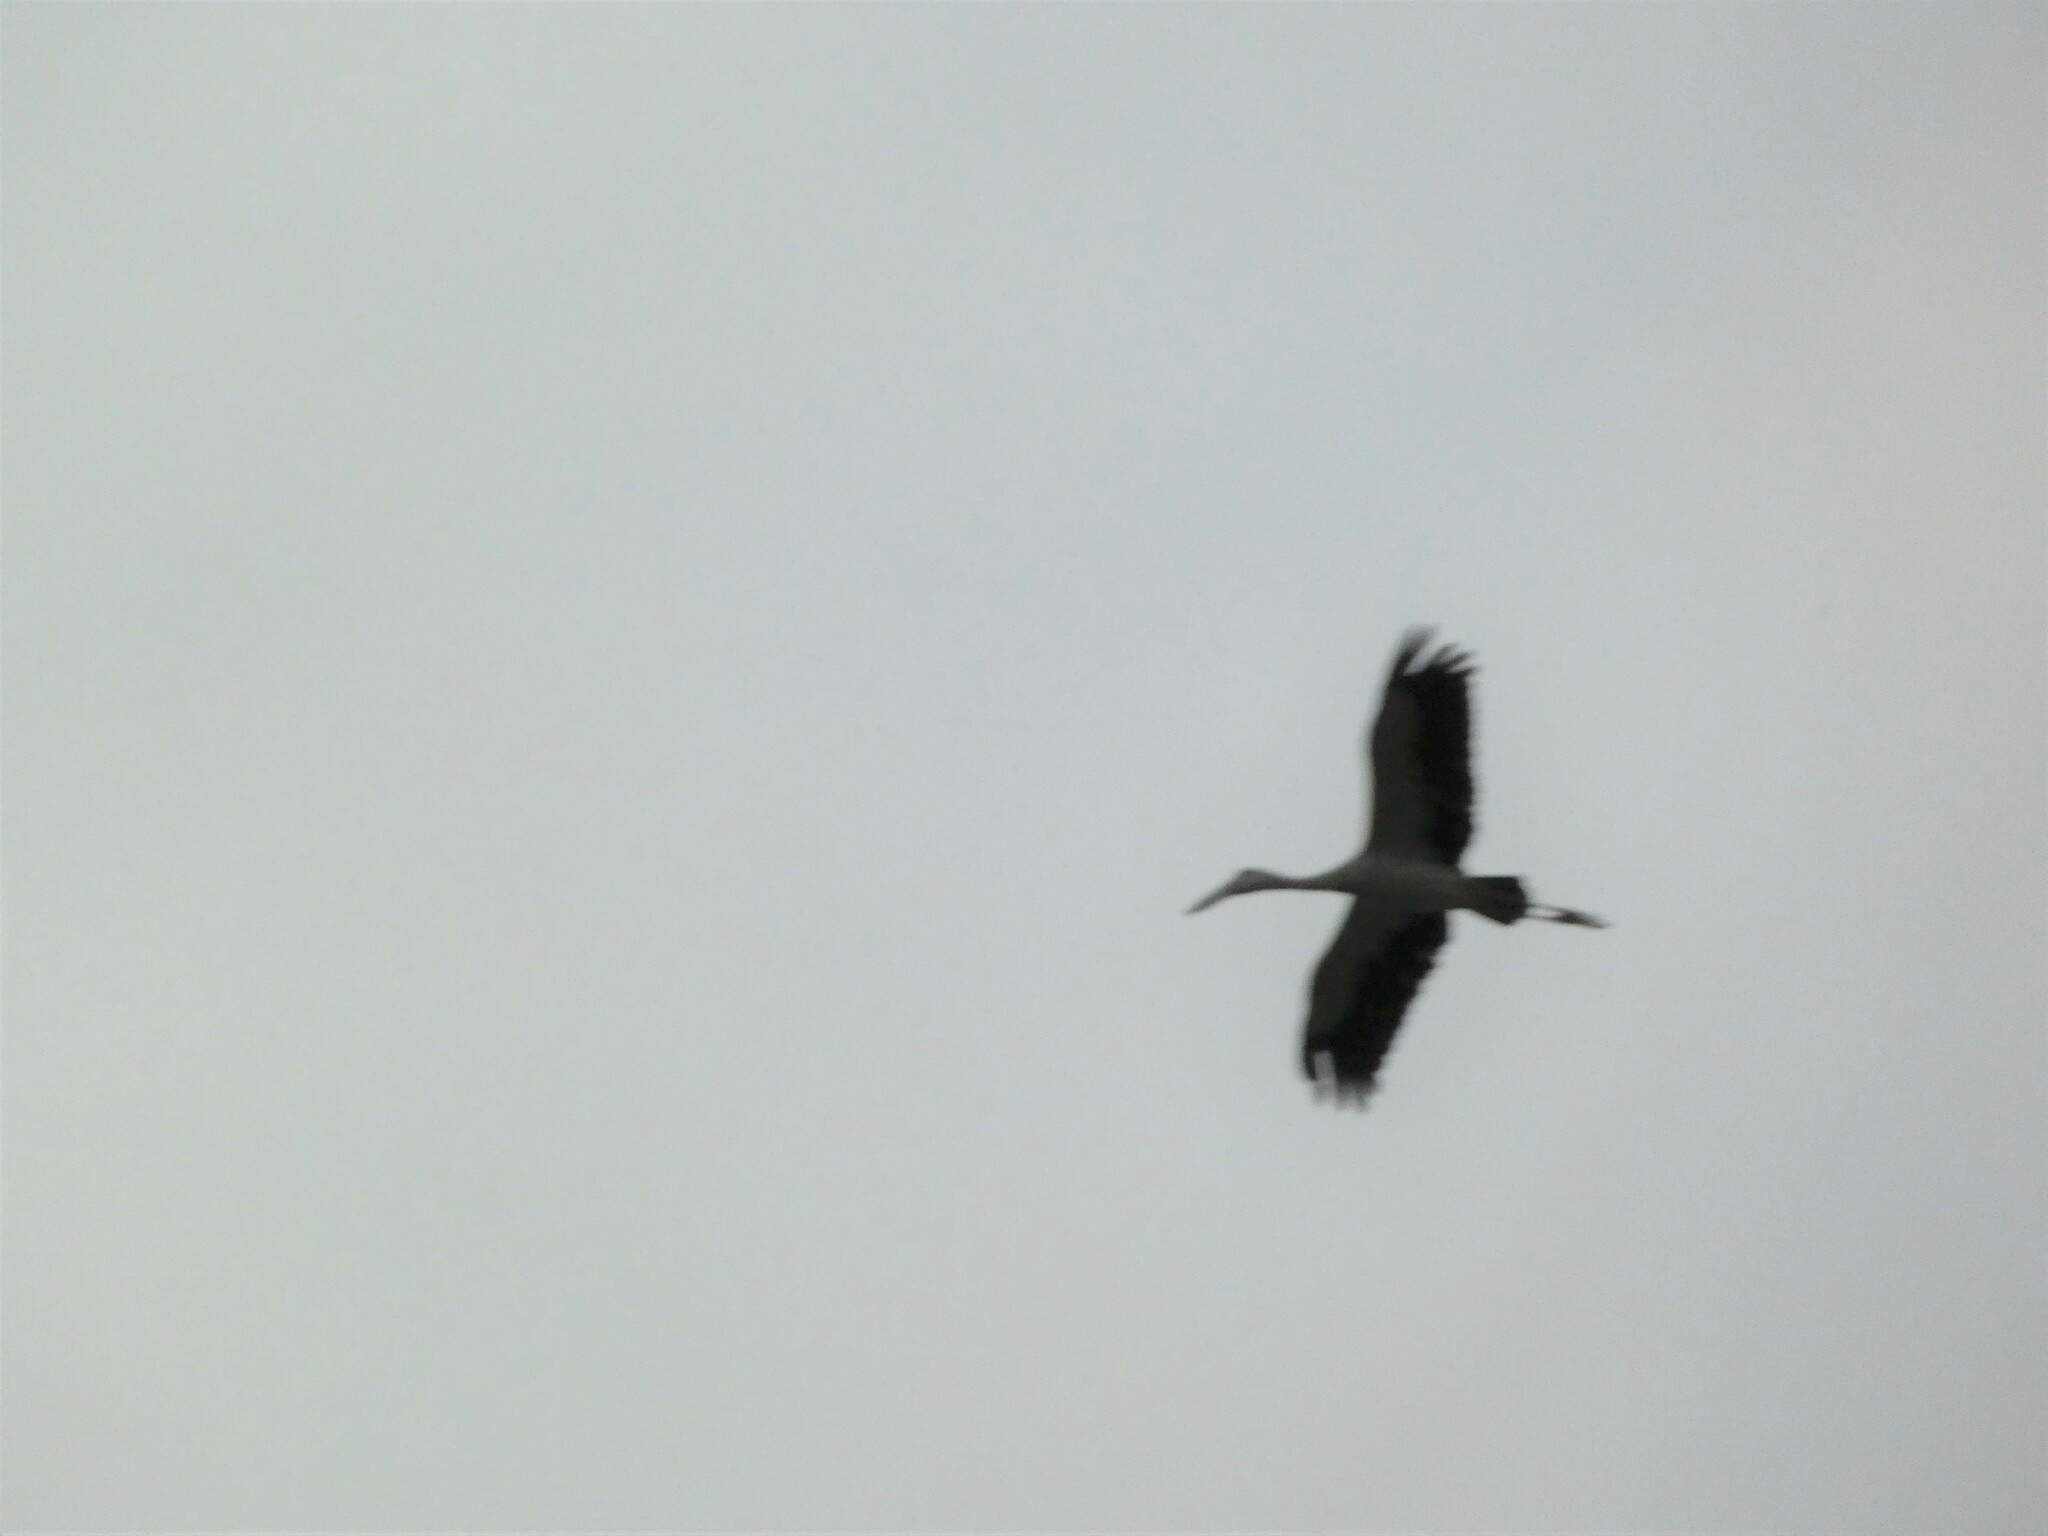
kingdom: Animalia
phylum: Chordata
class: Aves
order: Ciconiiformes
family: Ciconiidae
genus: Anastomus
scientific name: Anastomus oscitans
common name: Asian openbill
